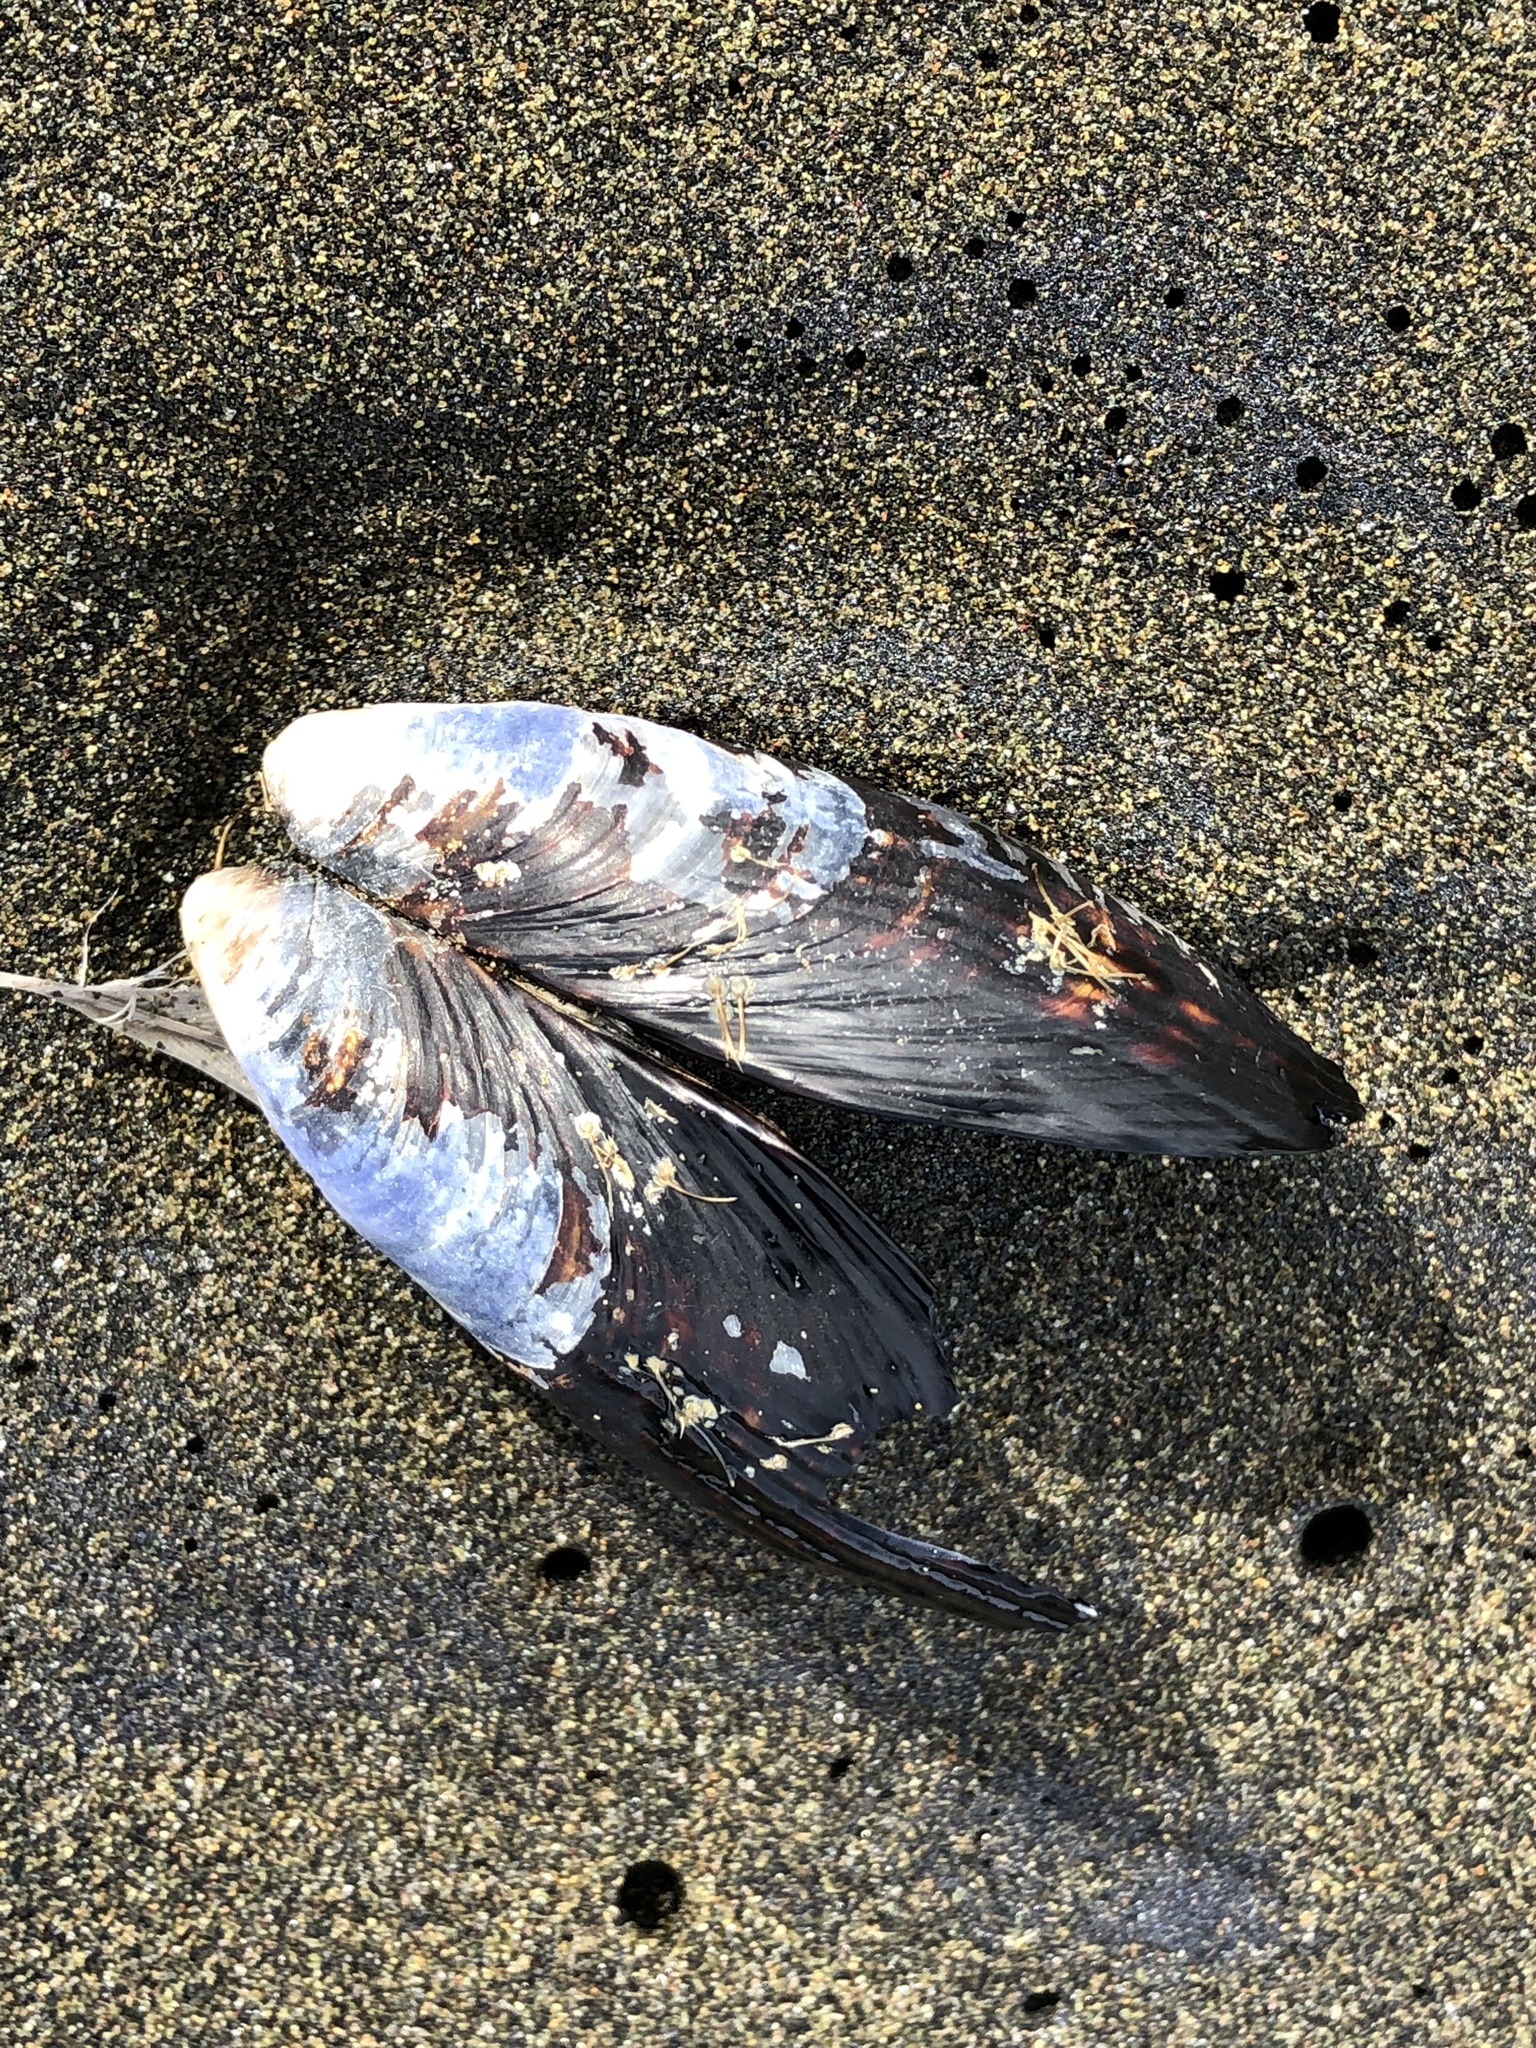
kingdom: Animalia
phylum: Mollusca
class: Bivalvia
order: Mytilida
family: Mytilidae
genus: Mytilus
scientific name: Mytilus californianus
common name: California mussel
